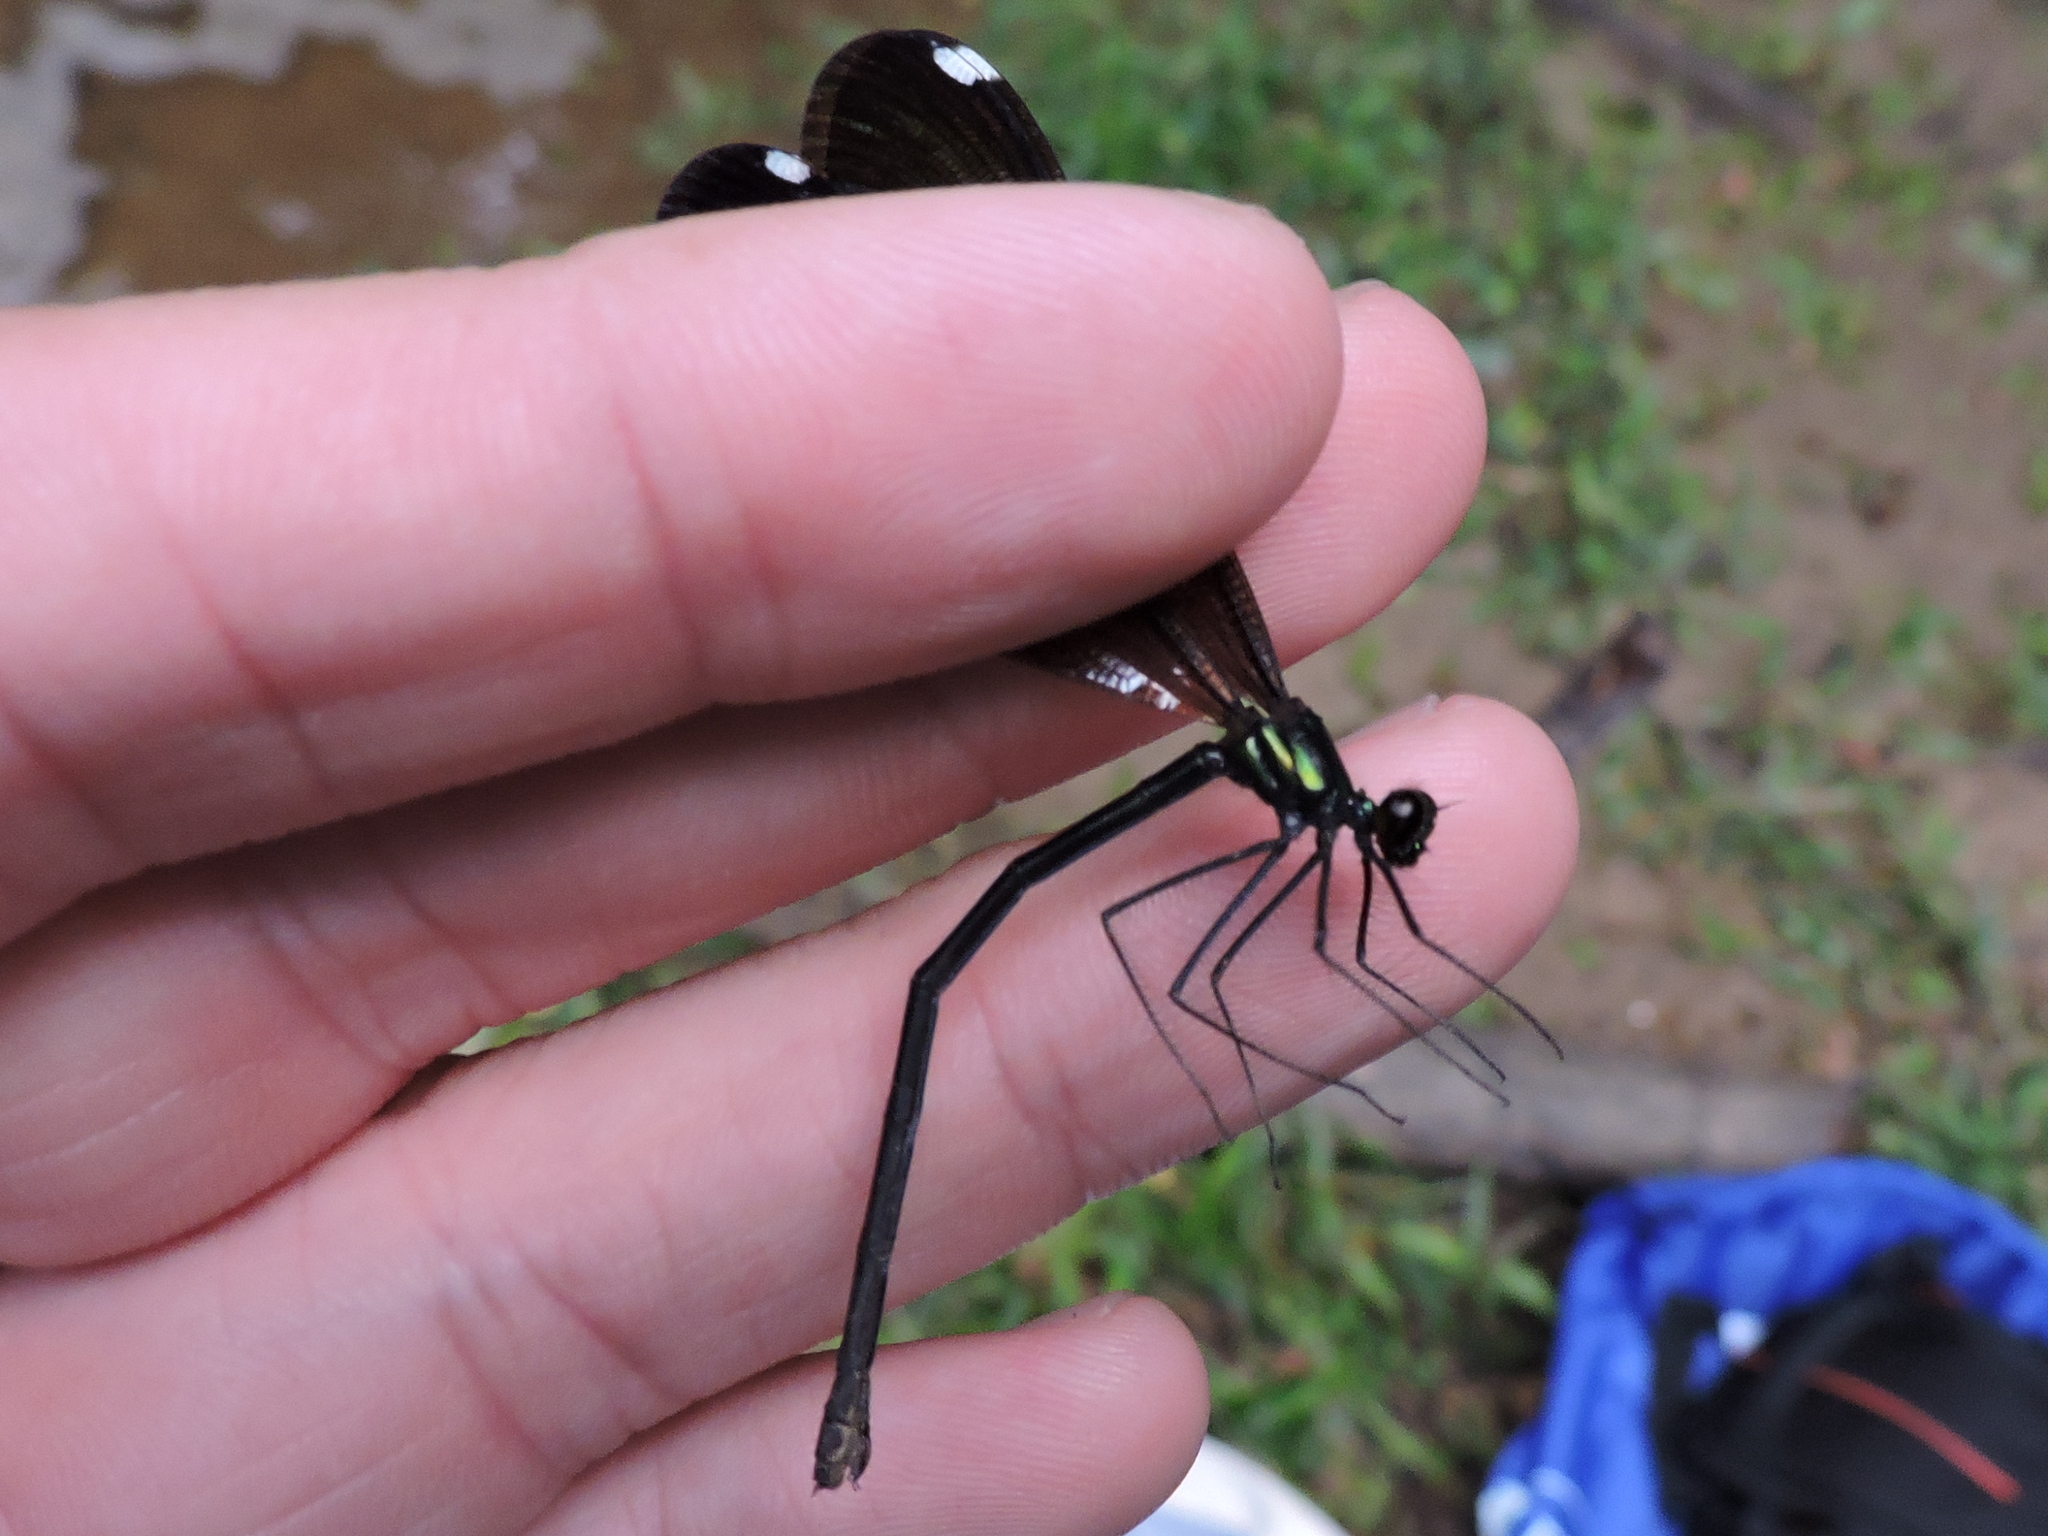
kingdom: Animalia
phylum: Arthropoda
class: Insecta
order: Odonata
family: Calopterygidae
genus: Calopteryx
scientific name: Calopteryx maculata
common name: Ebony jewelwing
